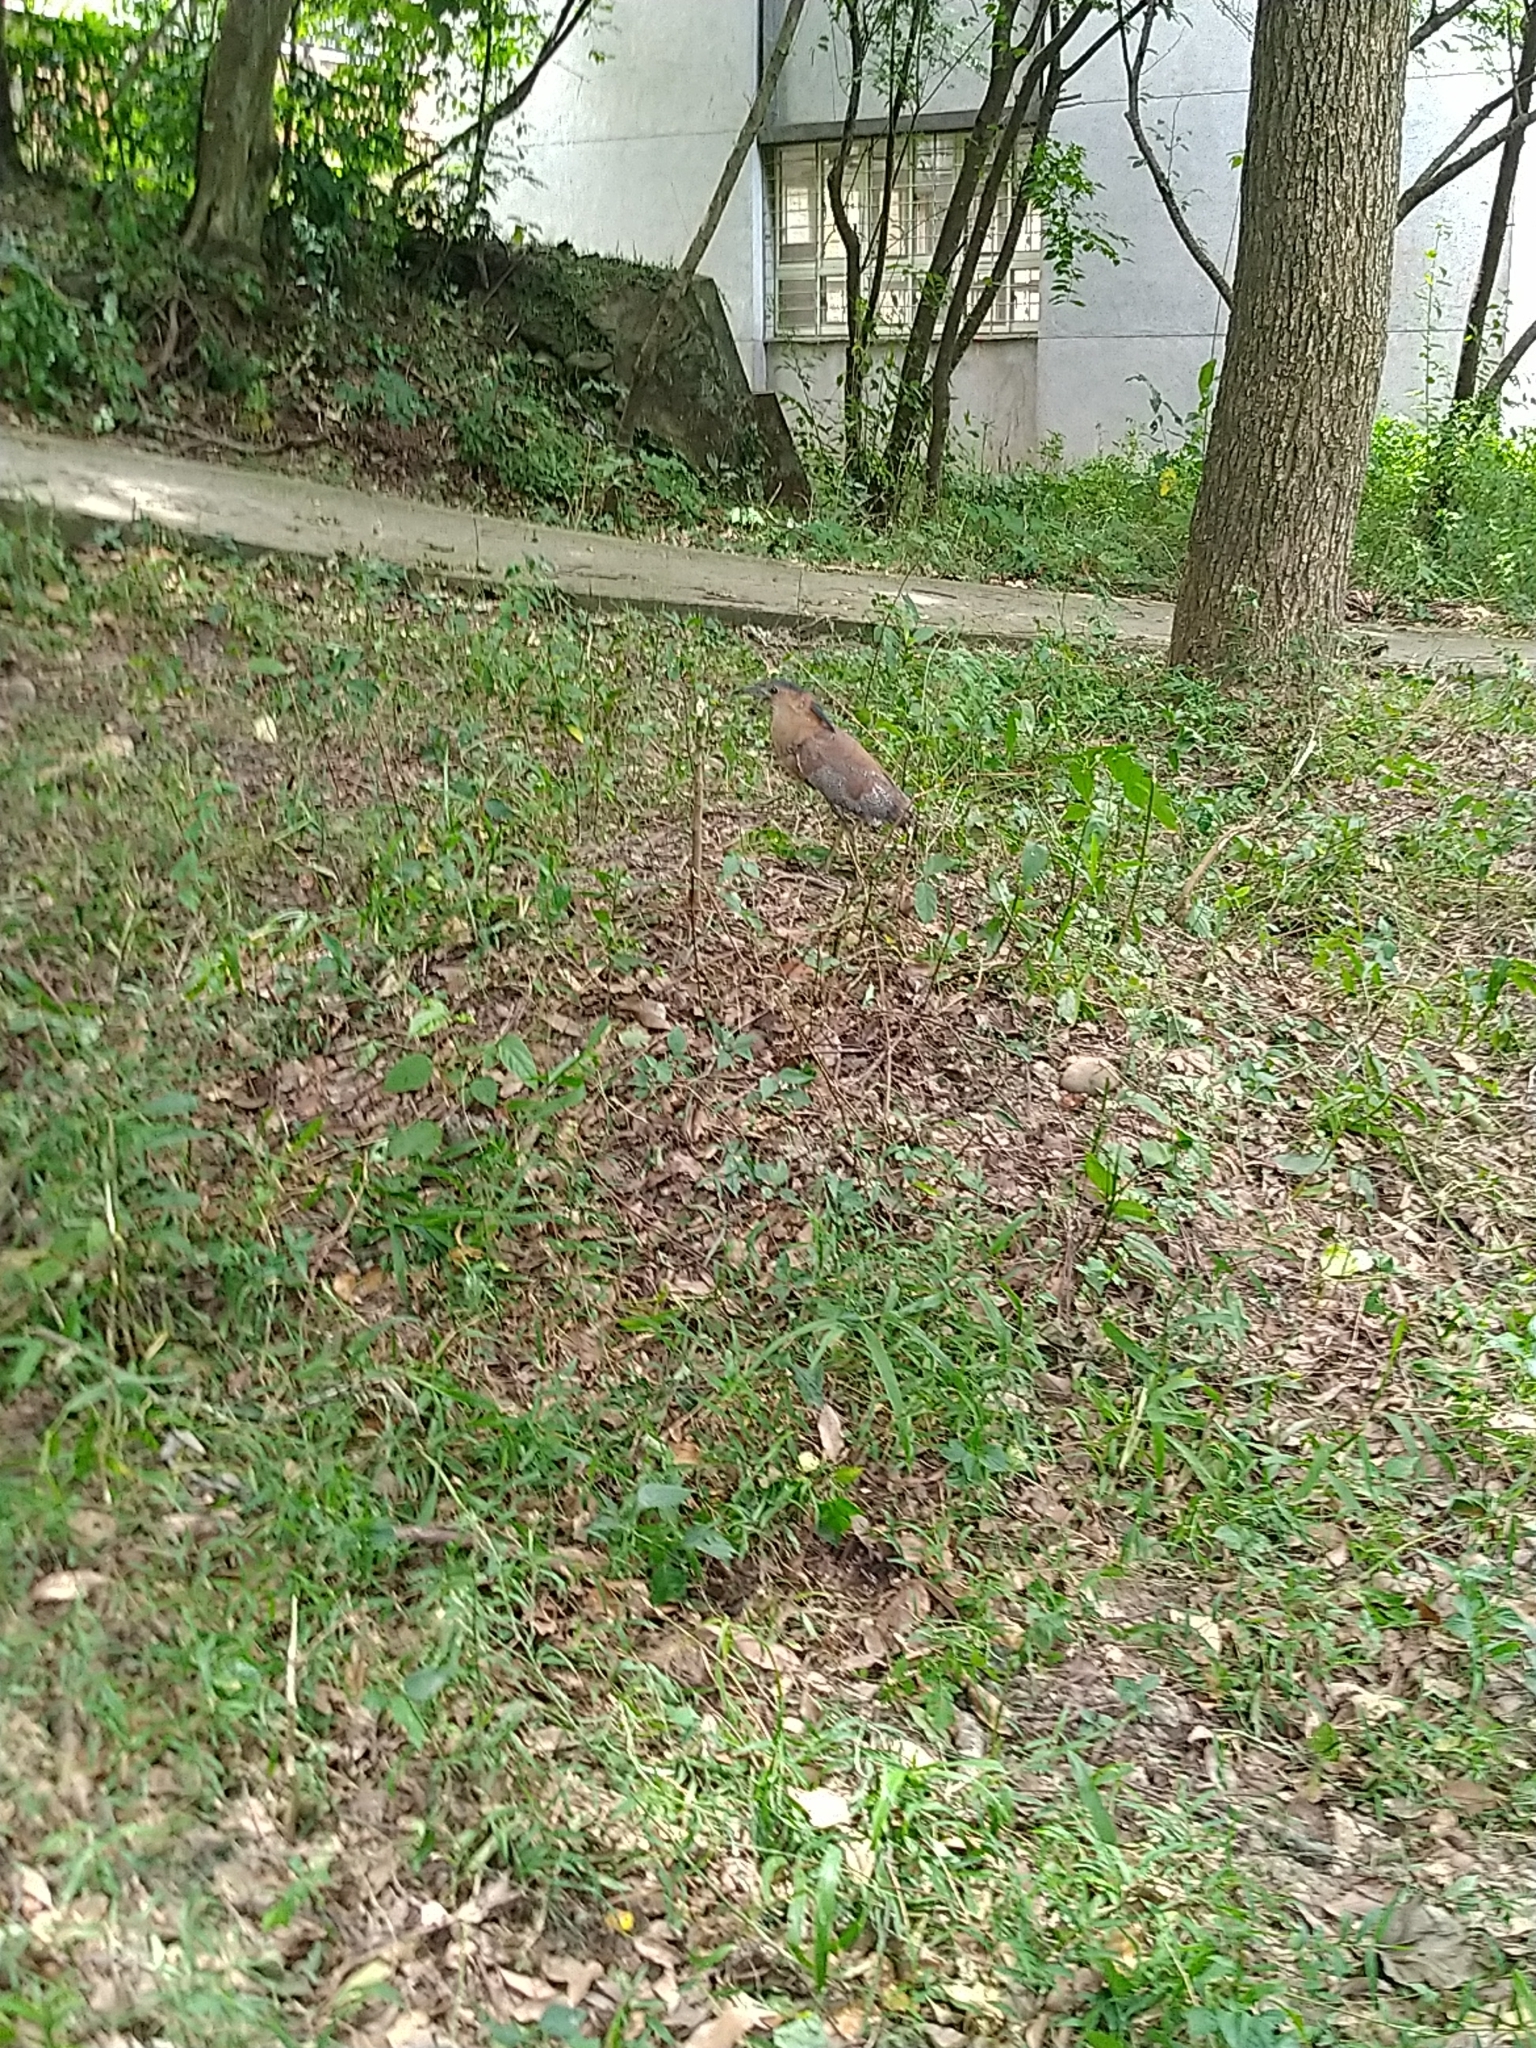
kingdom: Animalia
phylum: Chordata
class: Aves
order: Pelecaniformes
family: Ardeidae
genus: Gorsachius
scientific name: Gorsachius melanolophus
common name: Malayan night heron
